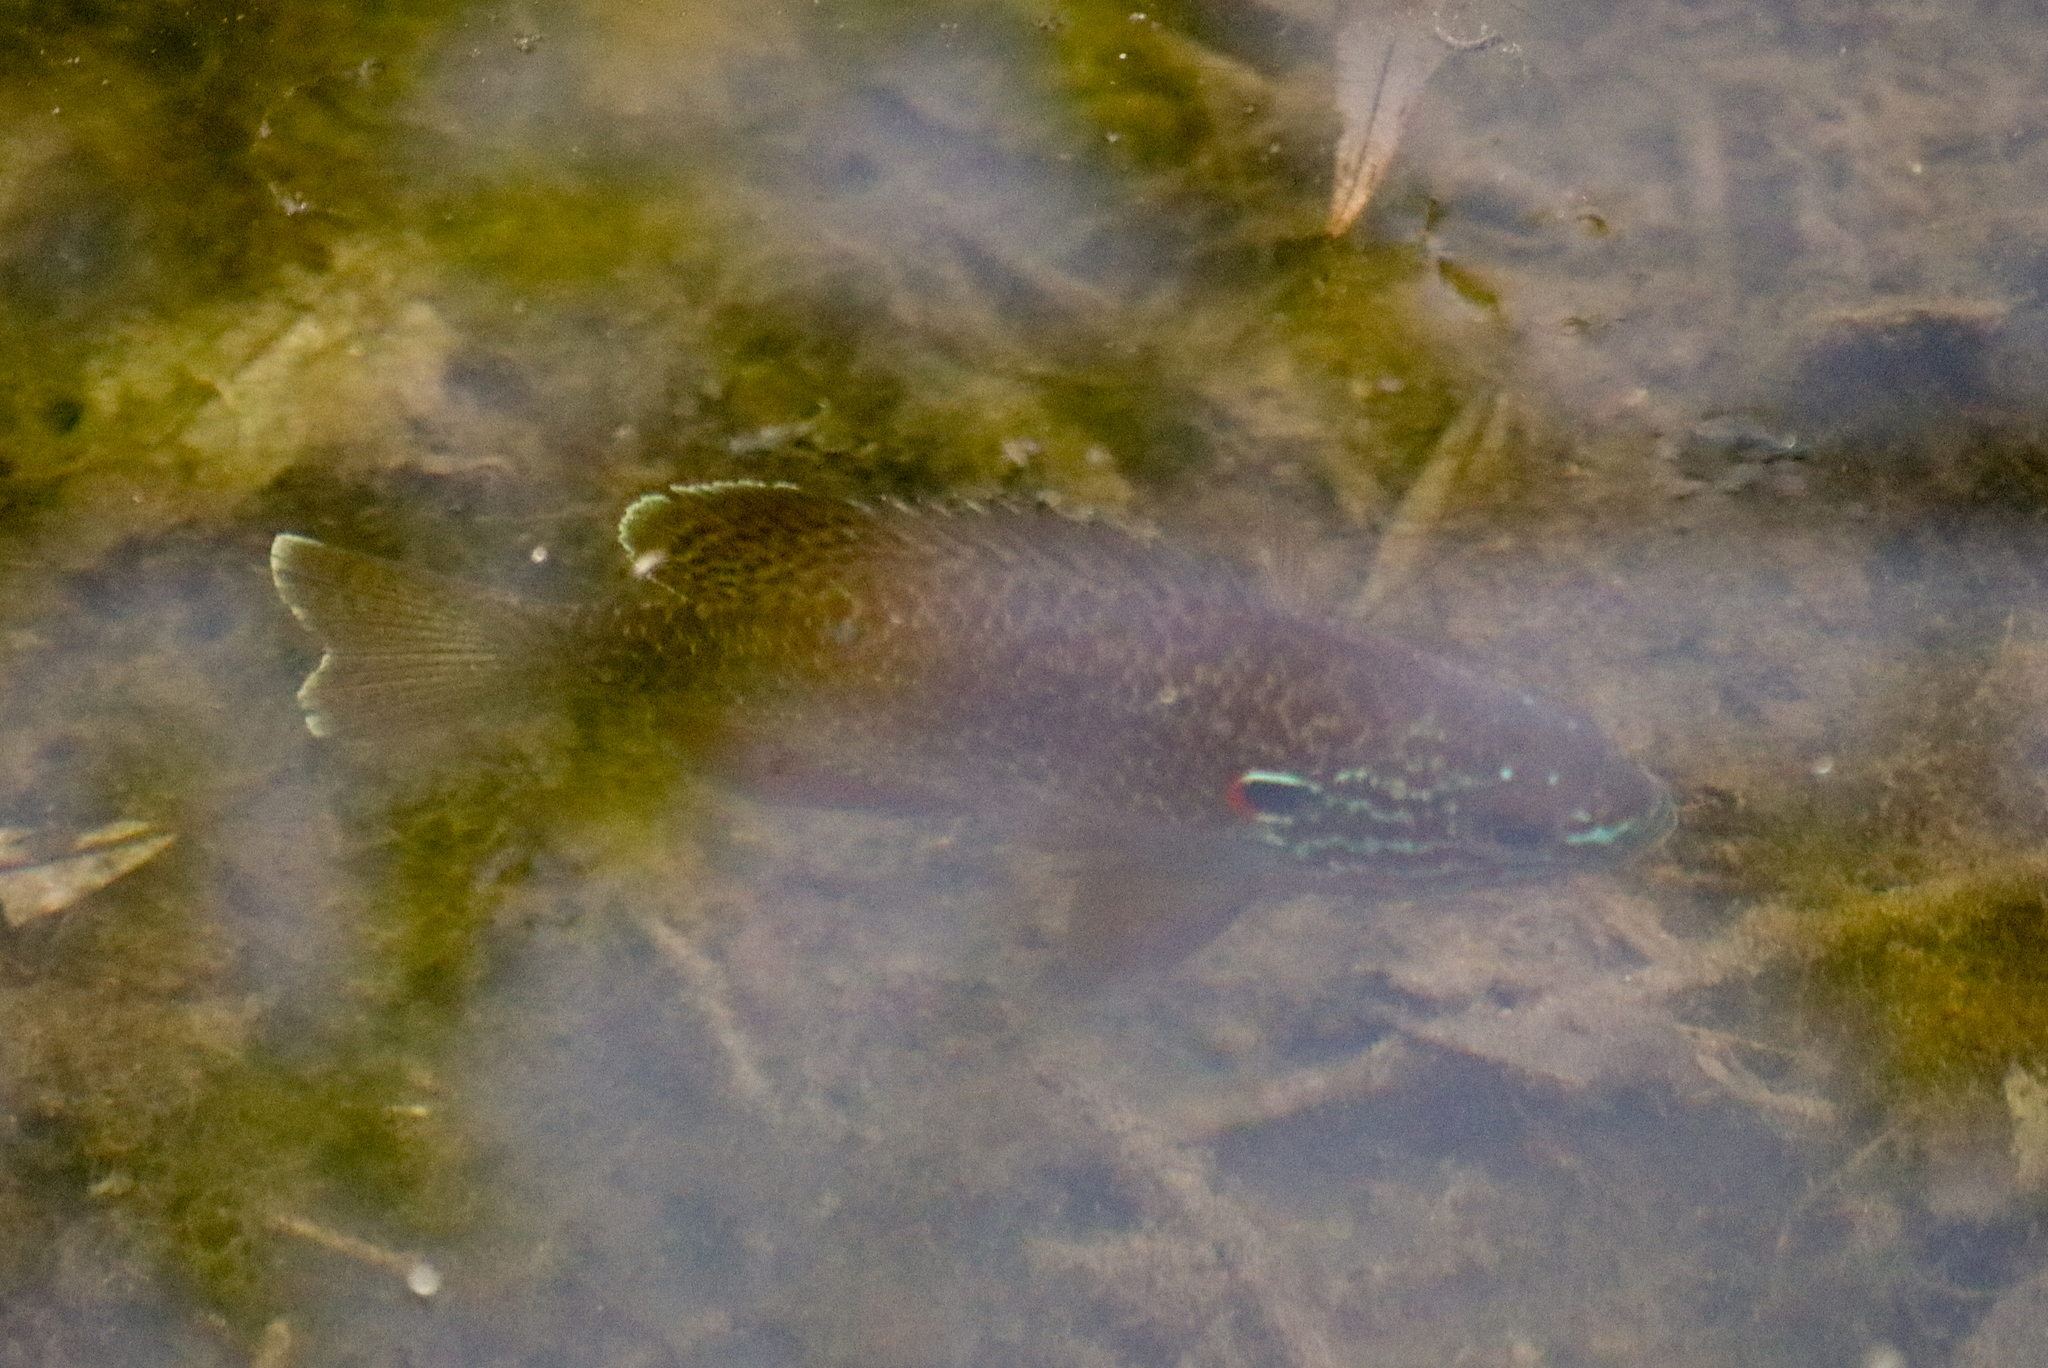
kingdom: Animalia
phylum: Chordata
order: Perciformes
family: Centrarchidae
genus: Lepomis
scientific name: Lepomis gibbosus
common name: Pumpkinseed
